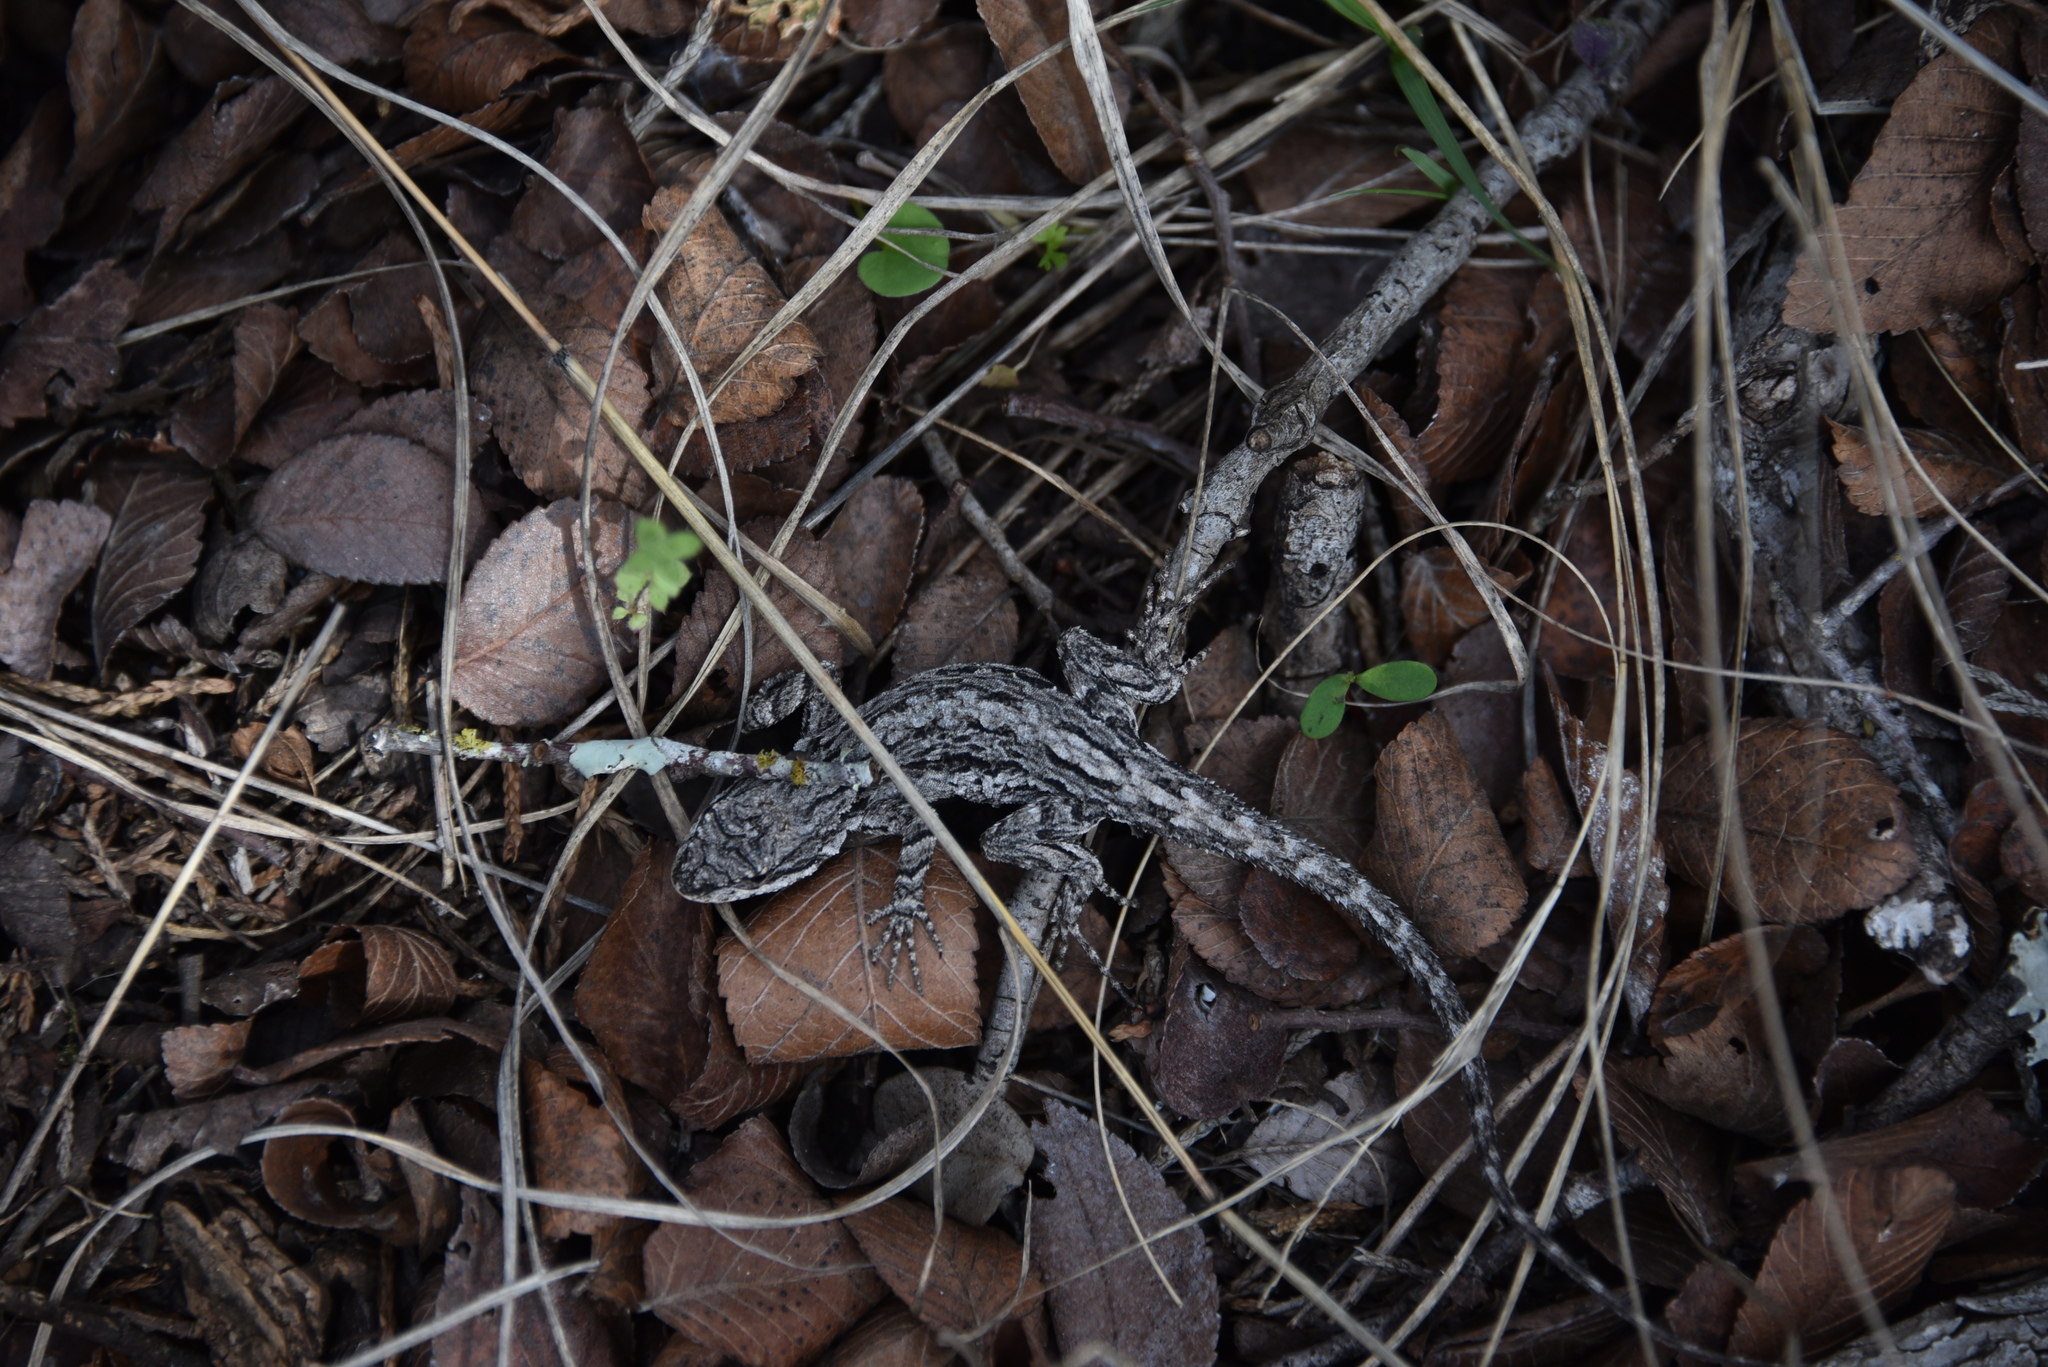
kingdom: Animalia
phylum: Chordata
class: Squamata
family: Phrynosomatidae
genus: Urosaurus
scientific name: Urosaurus ornatus
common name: Ornate tree lizard
